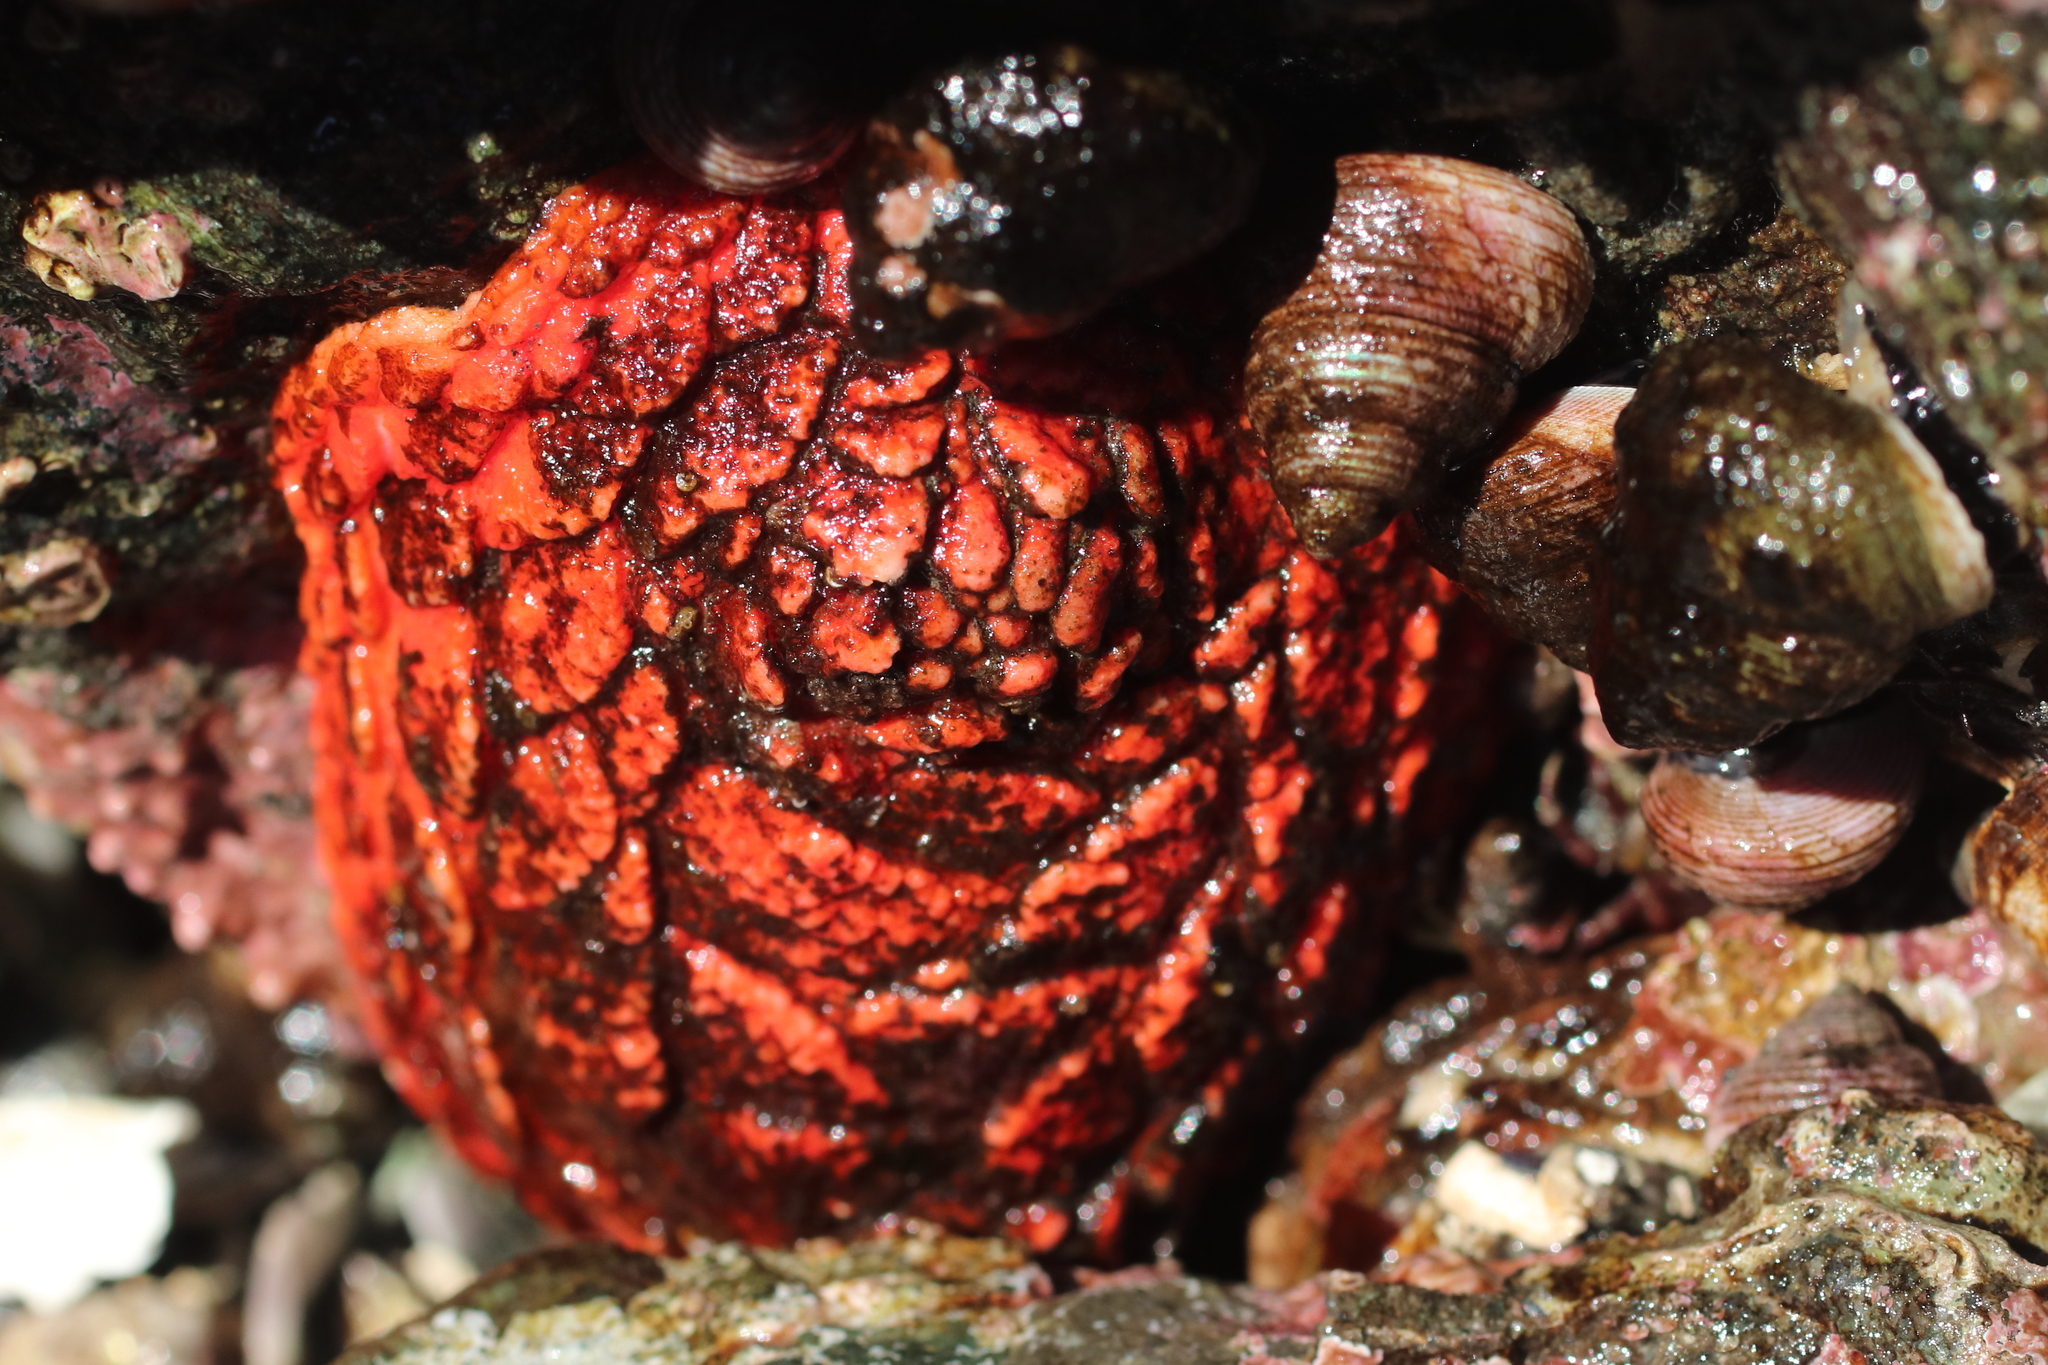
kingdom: Animalia
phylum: Echinodermata
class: Holothuroidea
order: Dendrochirotida
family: Psolidae
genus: Psolus
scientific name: Psolus chitonoides
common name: Creeping pedal sea cucumber
